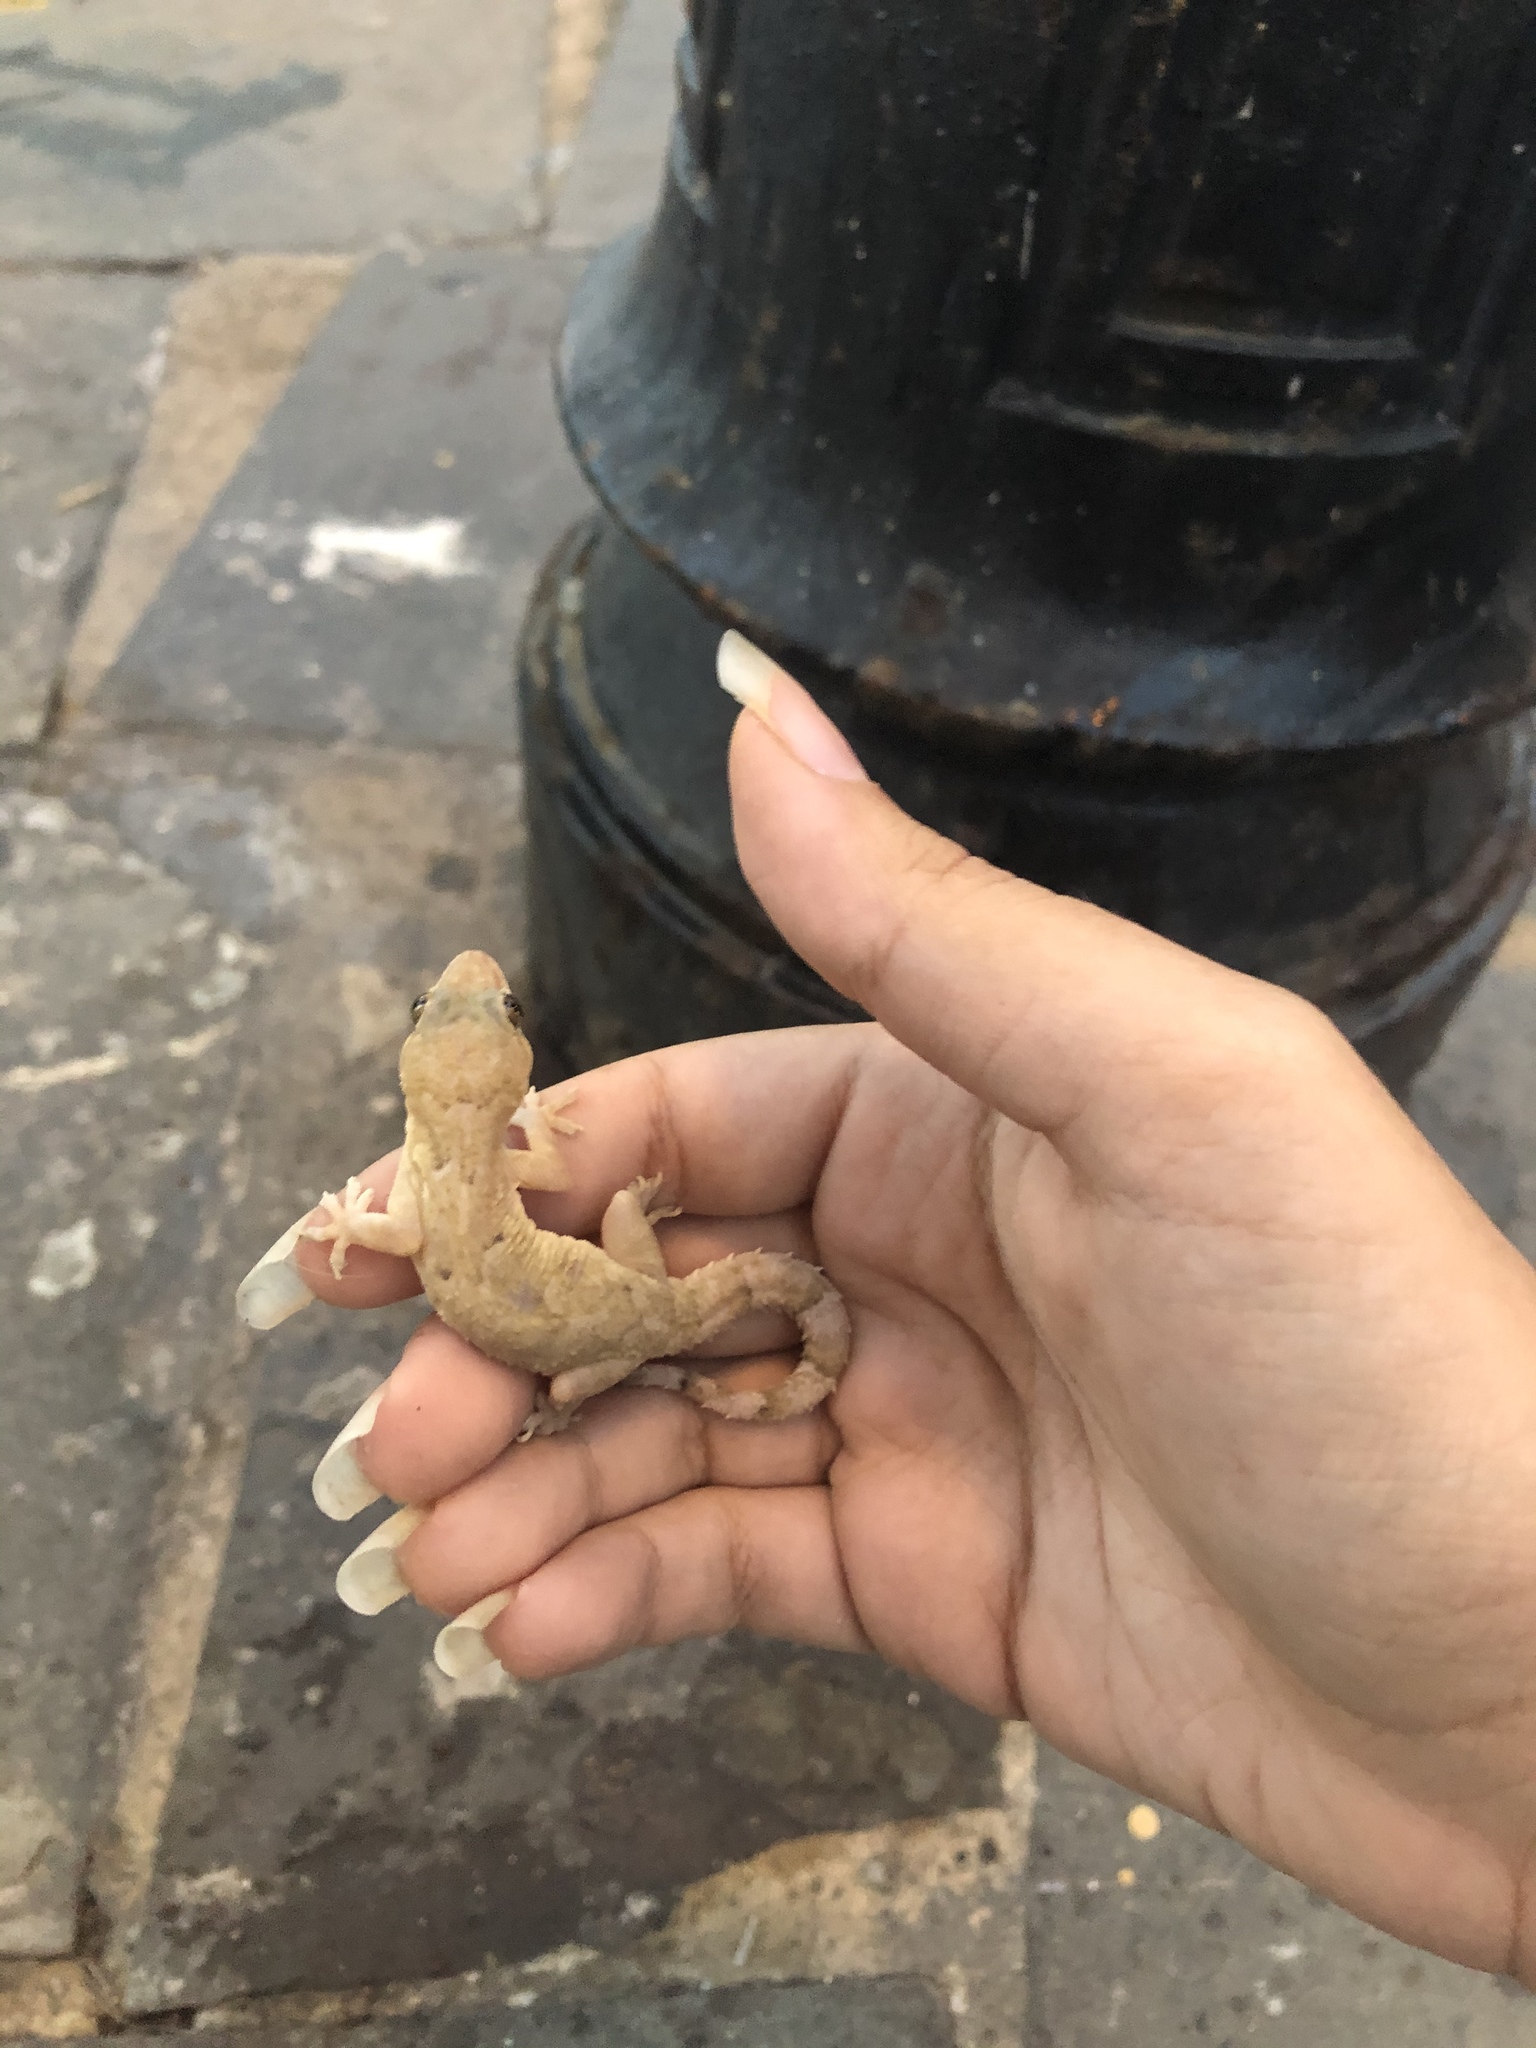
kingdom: Animalia
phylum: Chordata
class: Squamata
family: Gekkonidae
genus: Hemidactylus
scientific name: Hemidactylus mabouia
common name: House gecko
